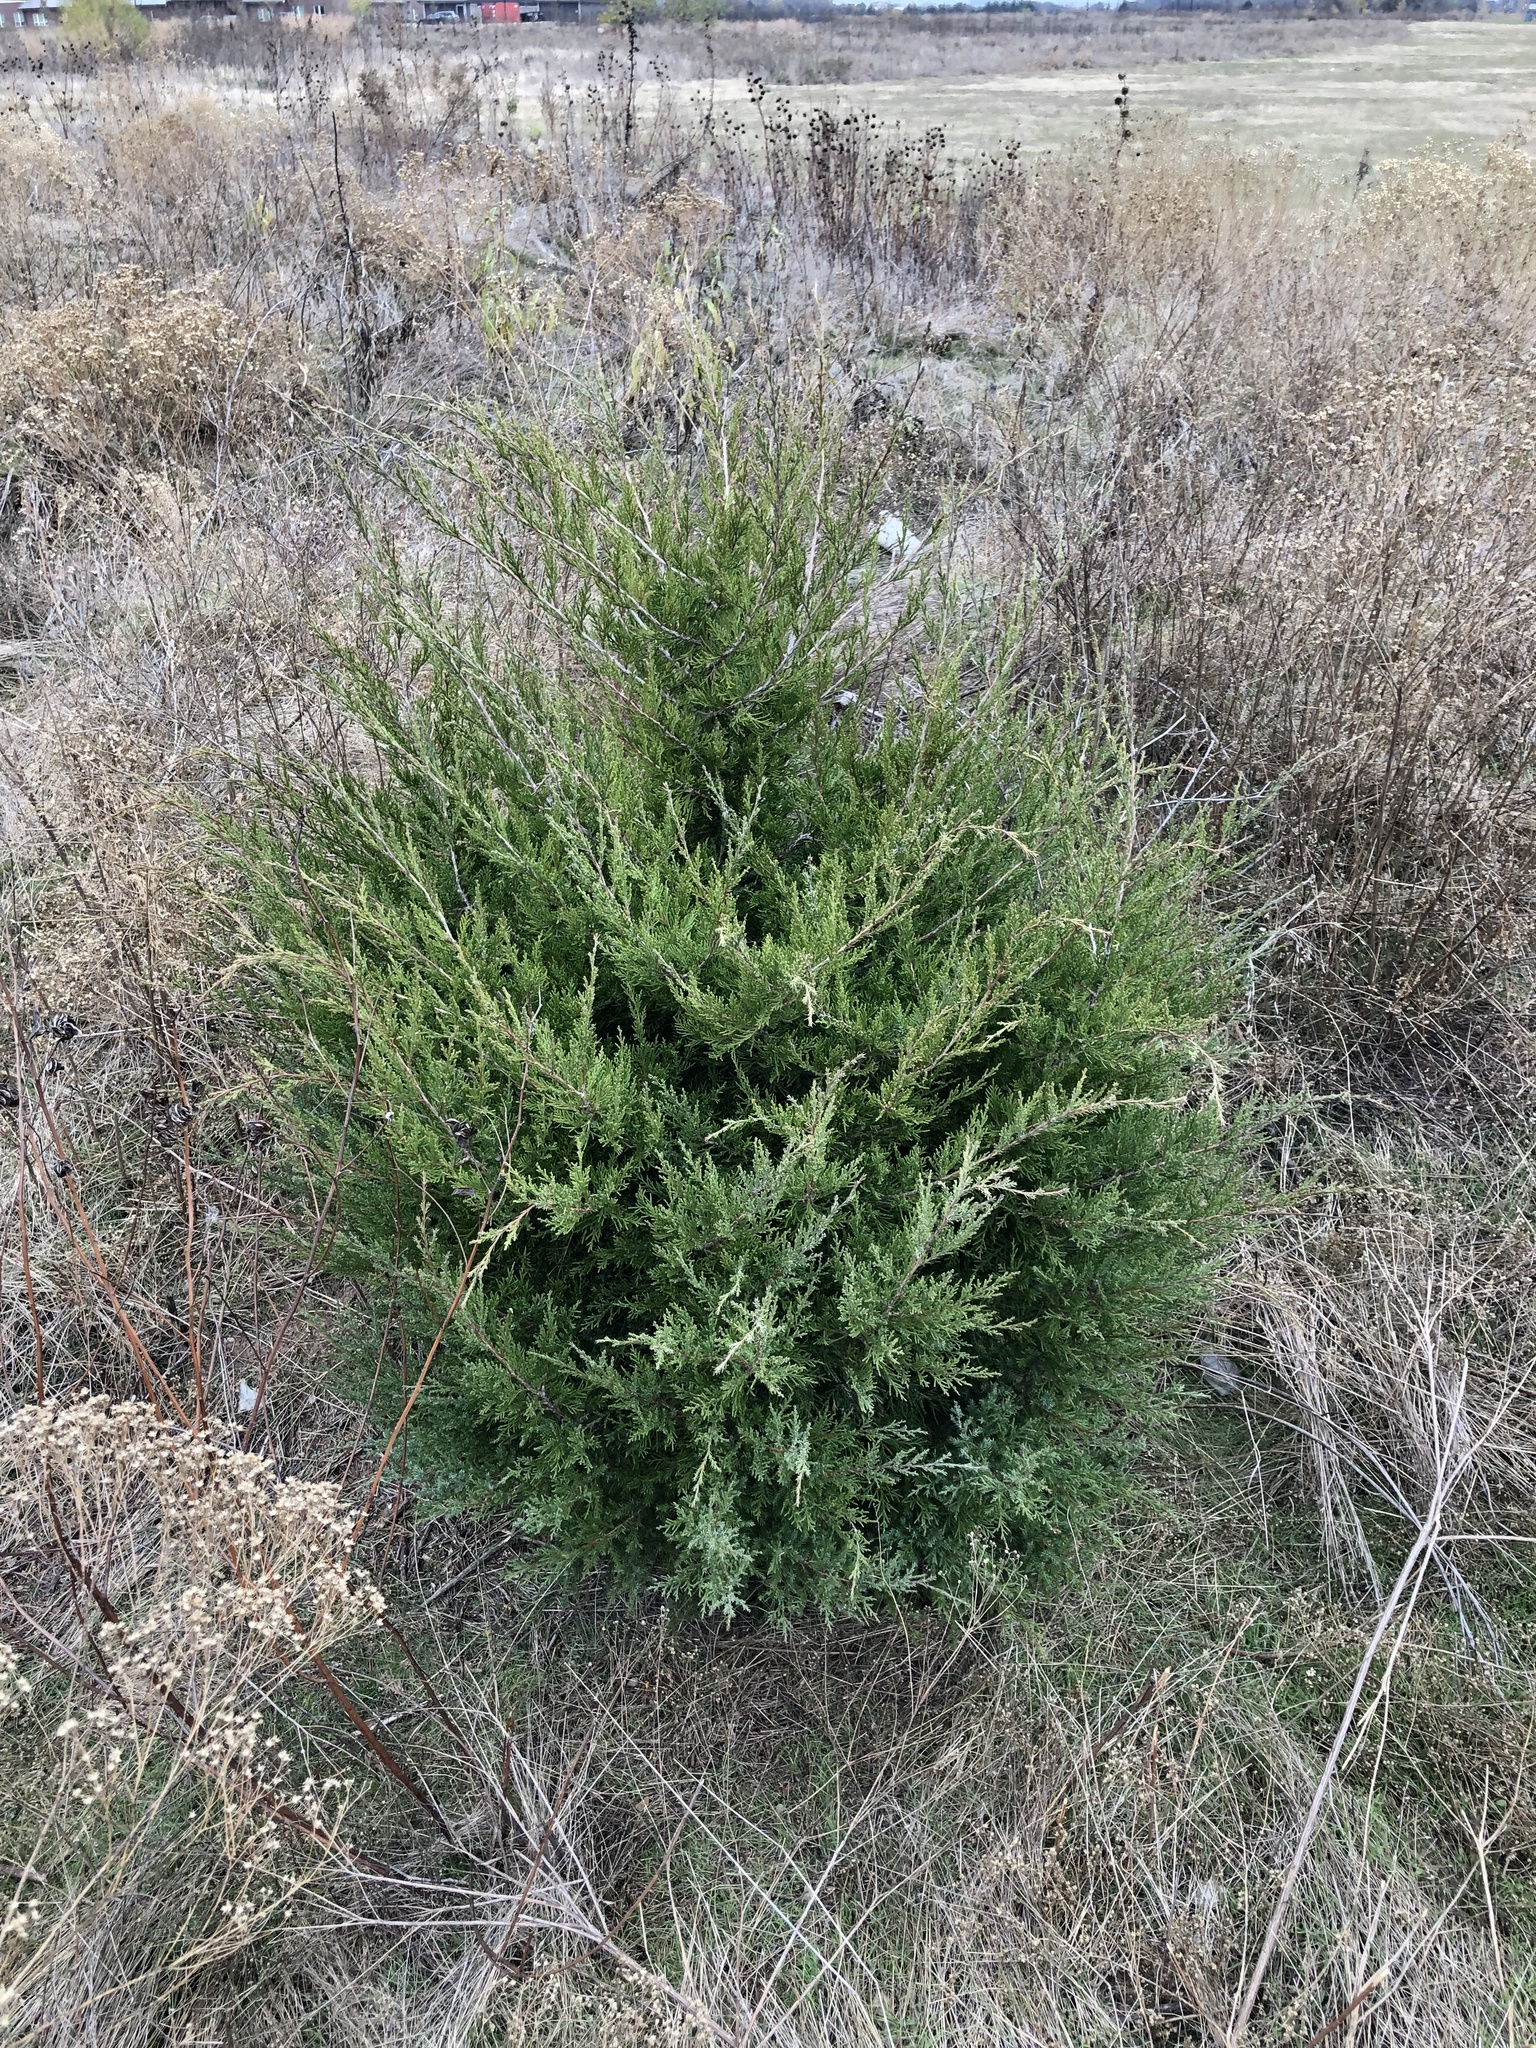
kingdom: Plantae
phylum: Tracheophyta
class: Pinopsida
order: Pinales
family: Cupressaceae
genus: Juniperus
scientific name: Juniperus virginiana
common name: Red juniper
